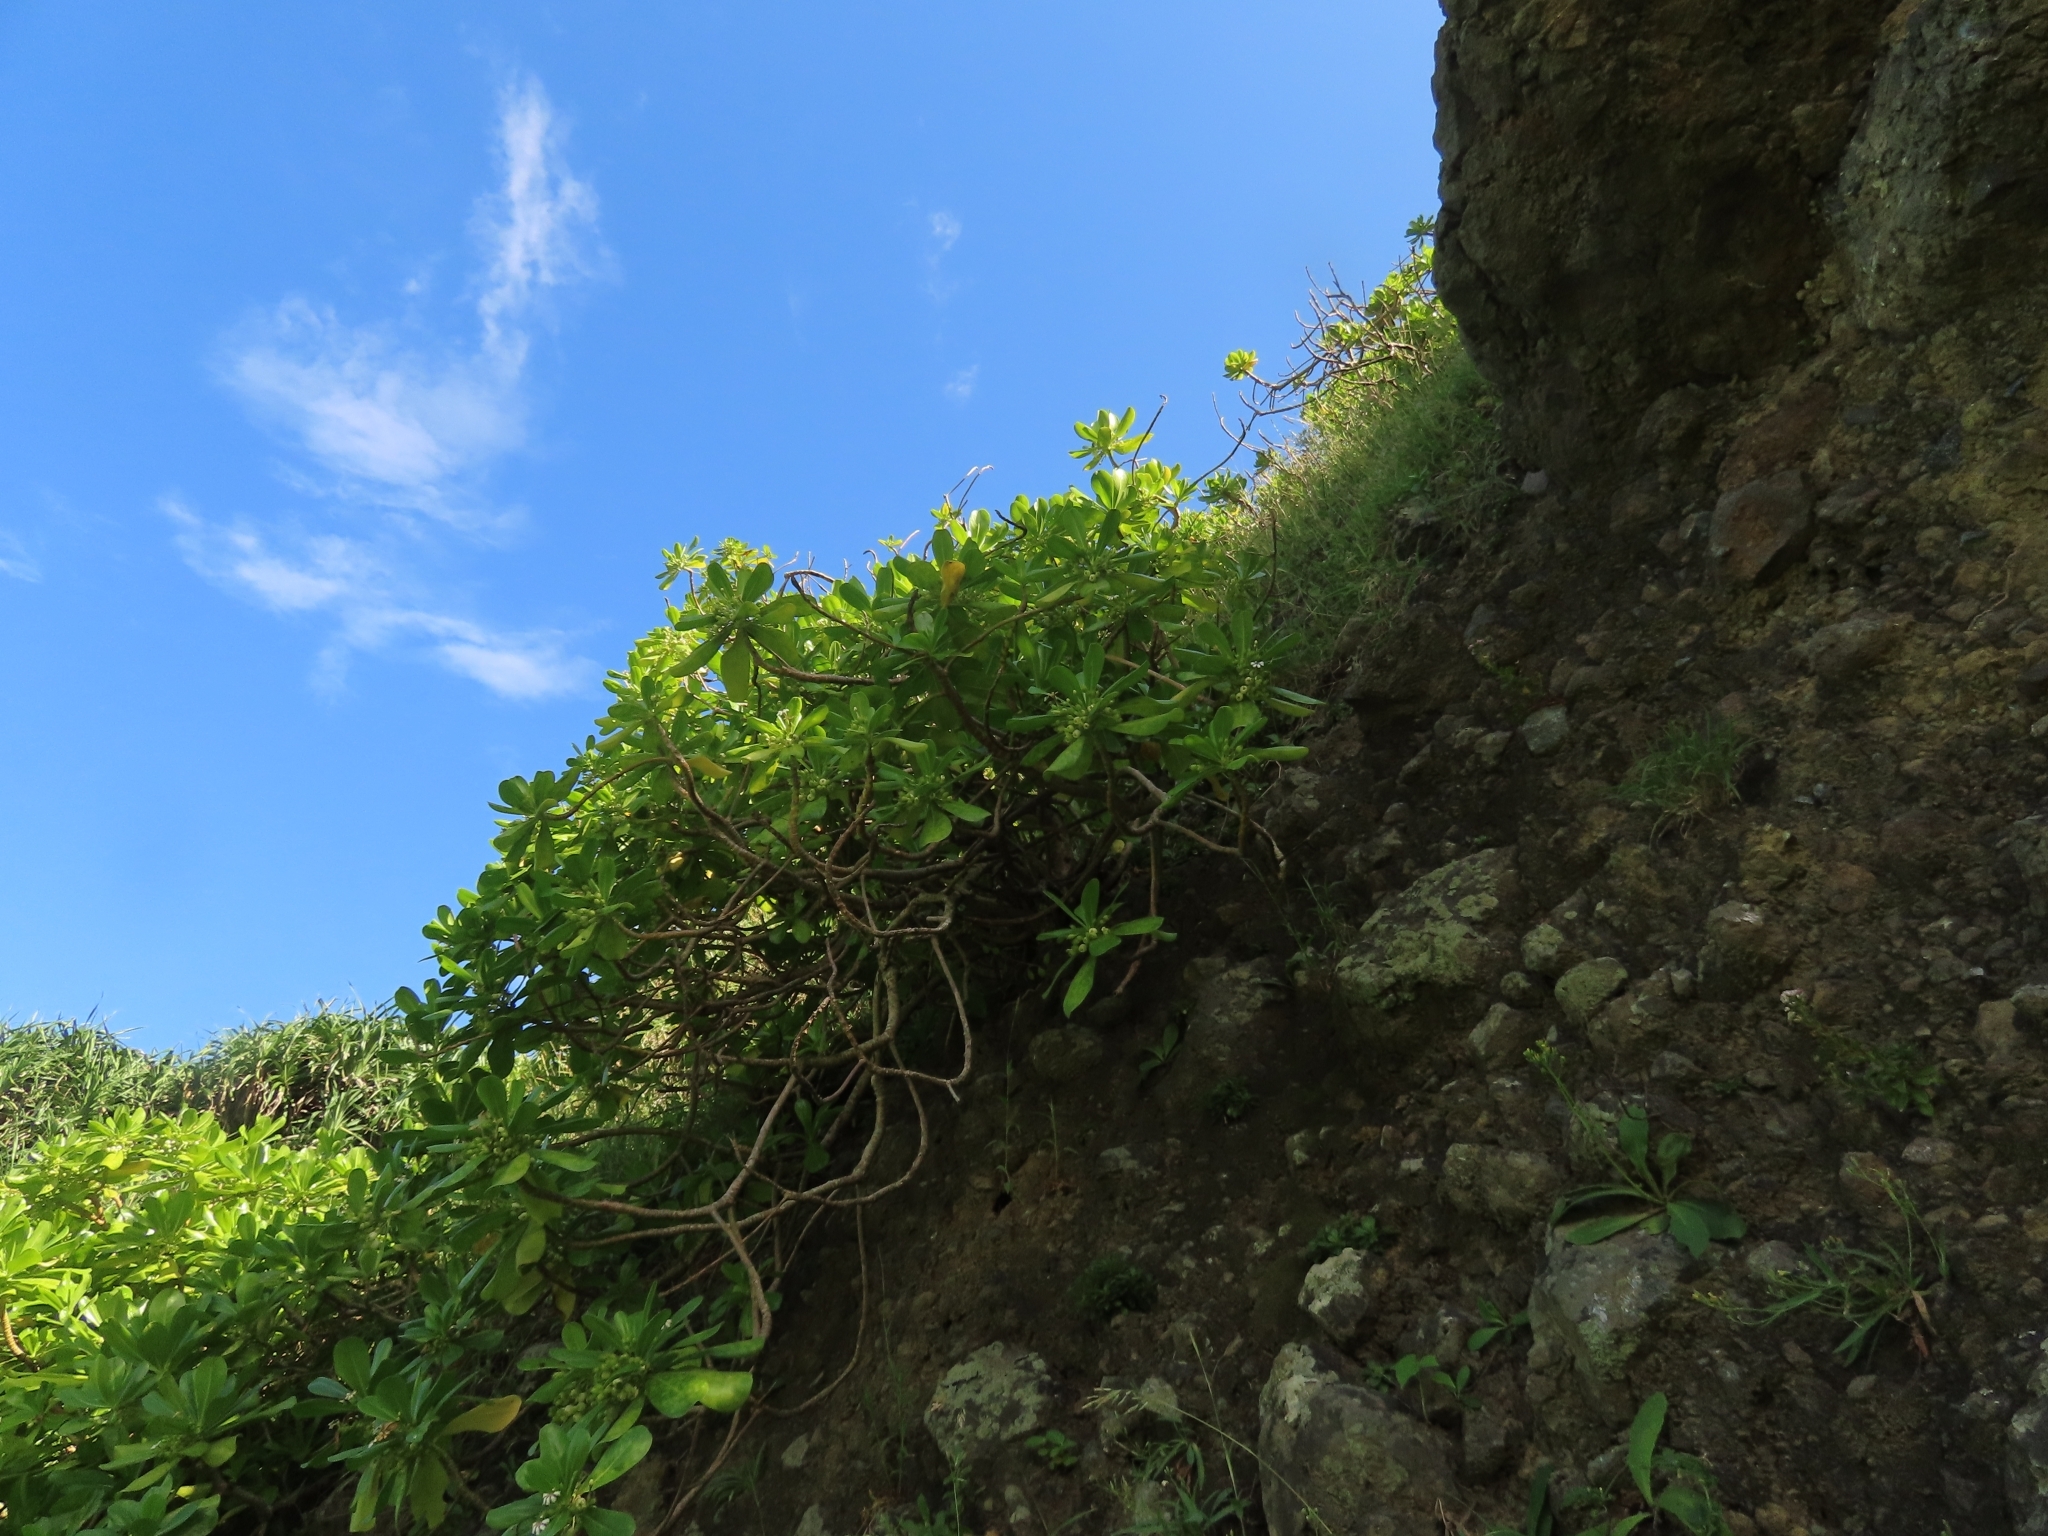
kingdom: Plantae
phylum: Tracheophyta
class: Magnoliopsida
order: Asterales
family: Goodeniaceae
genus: Scaevola
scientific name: Scaevola taccada
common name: Sea lettucetree
